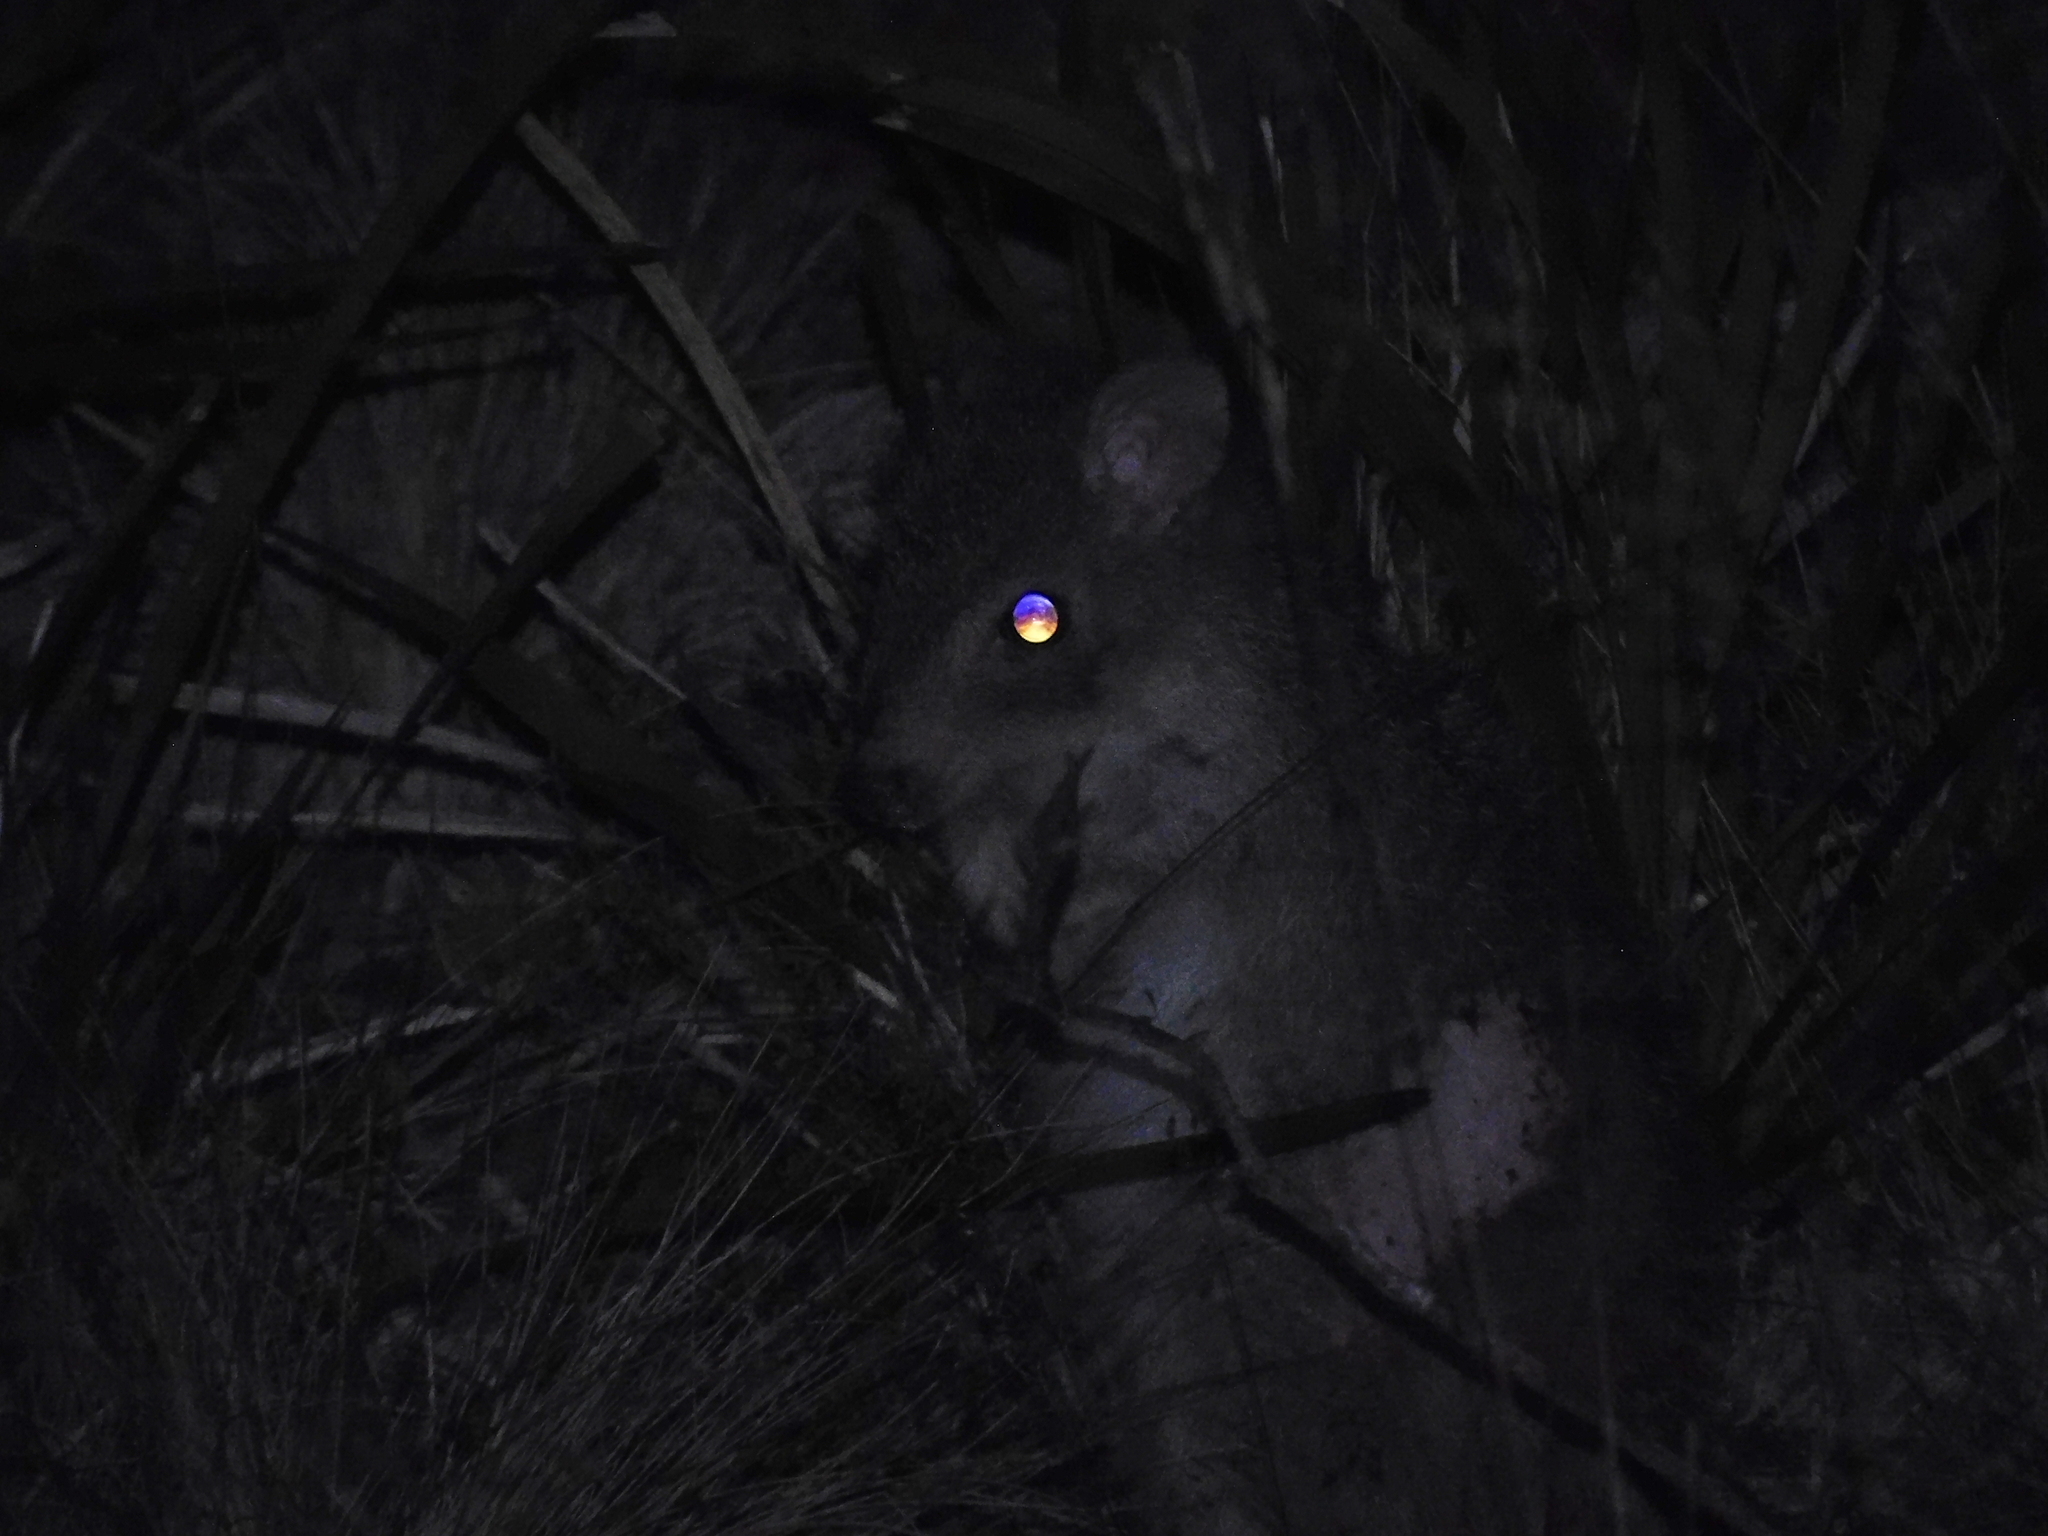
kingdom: Animalia
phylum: Chordata
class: Mammalia
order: Diprotodontia
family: Potoroidae
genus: Bettongia
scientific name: Bettongia gaimardi
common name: Eastern bettong
